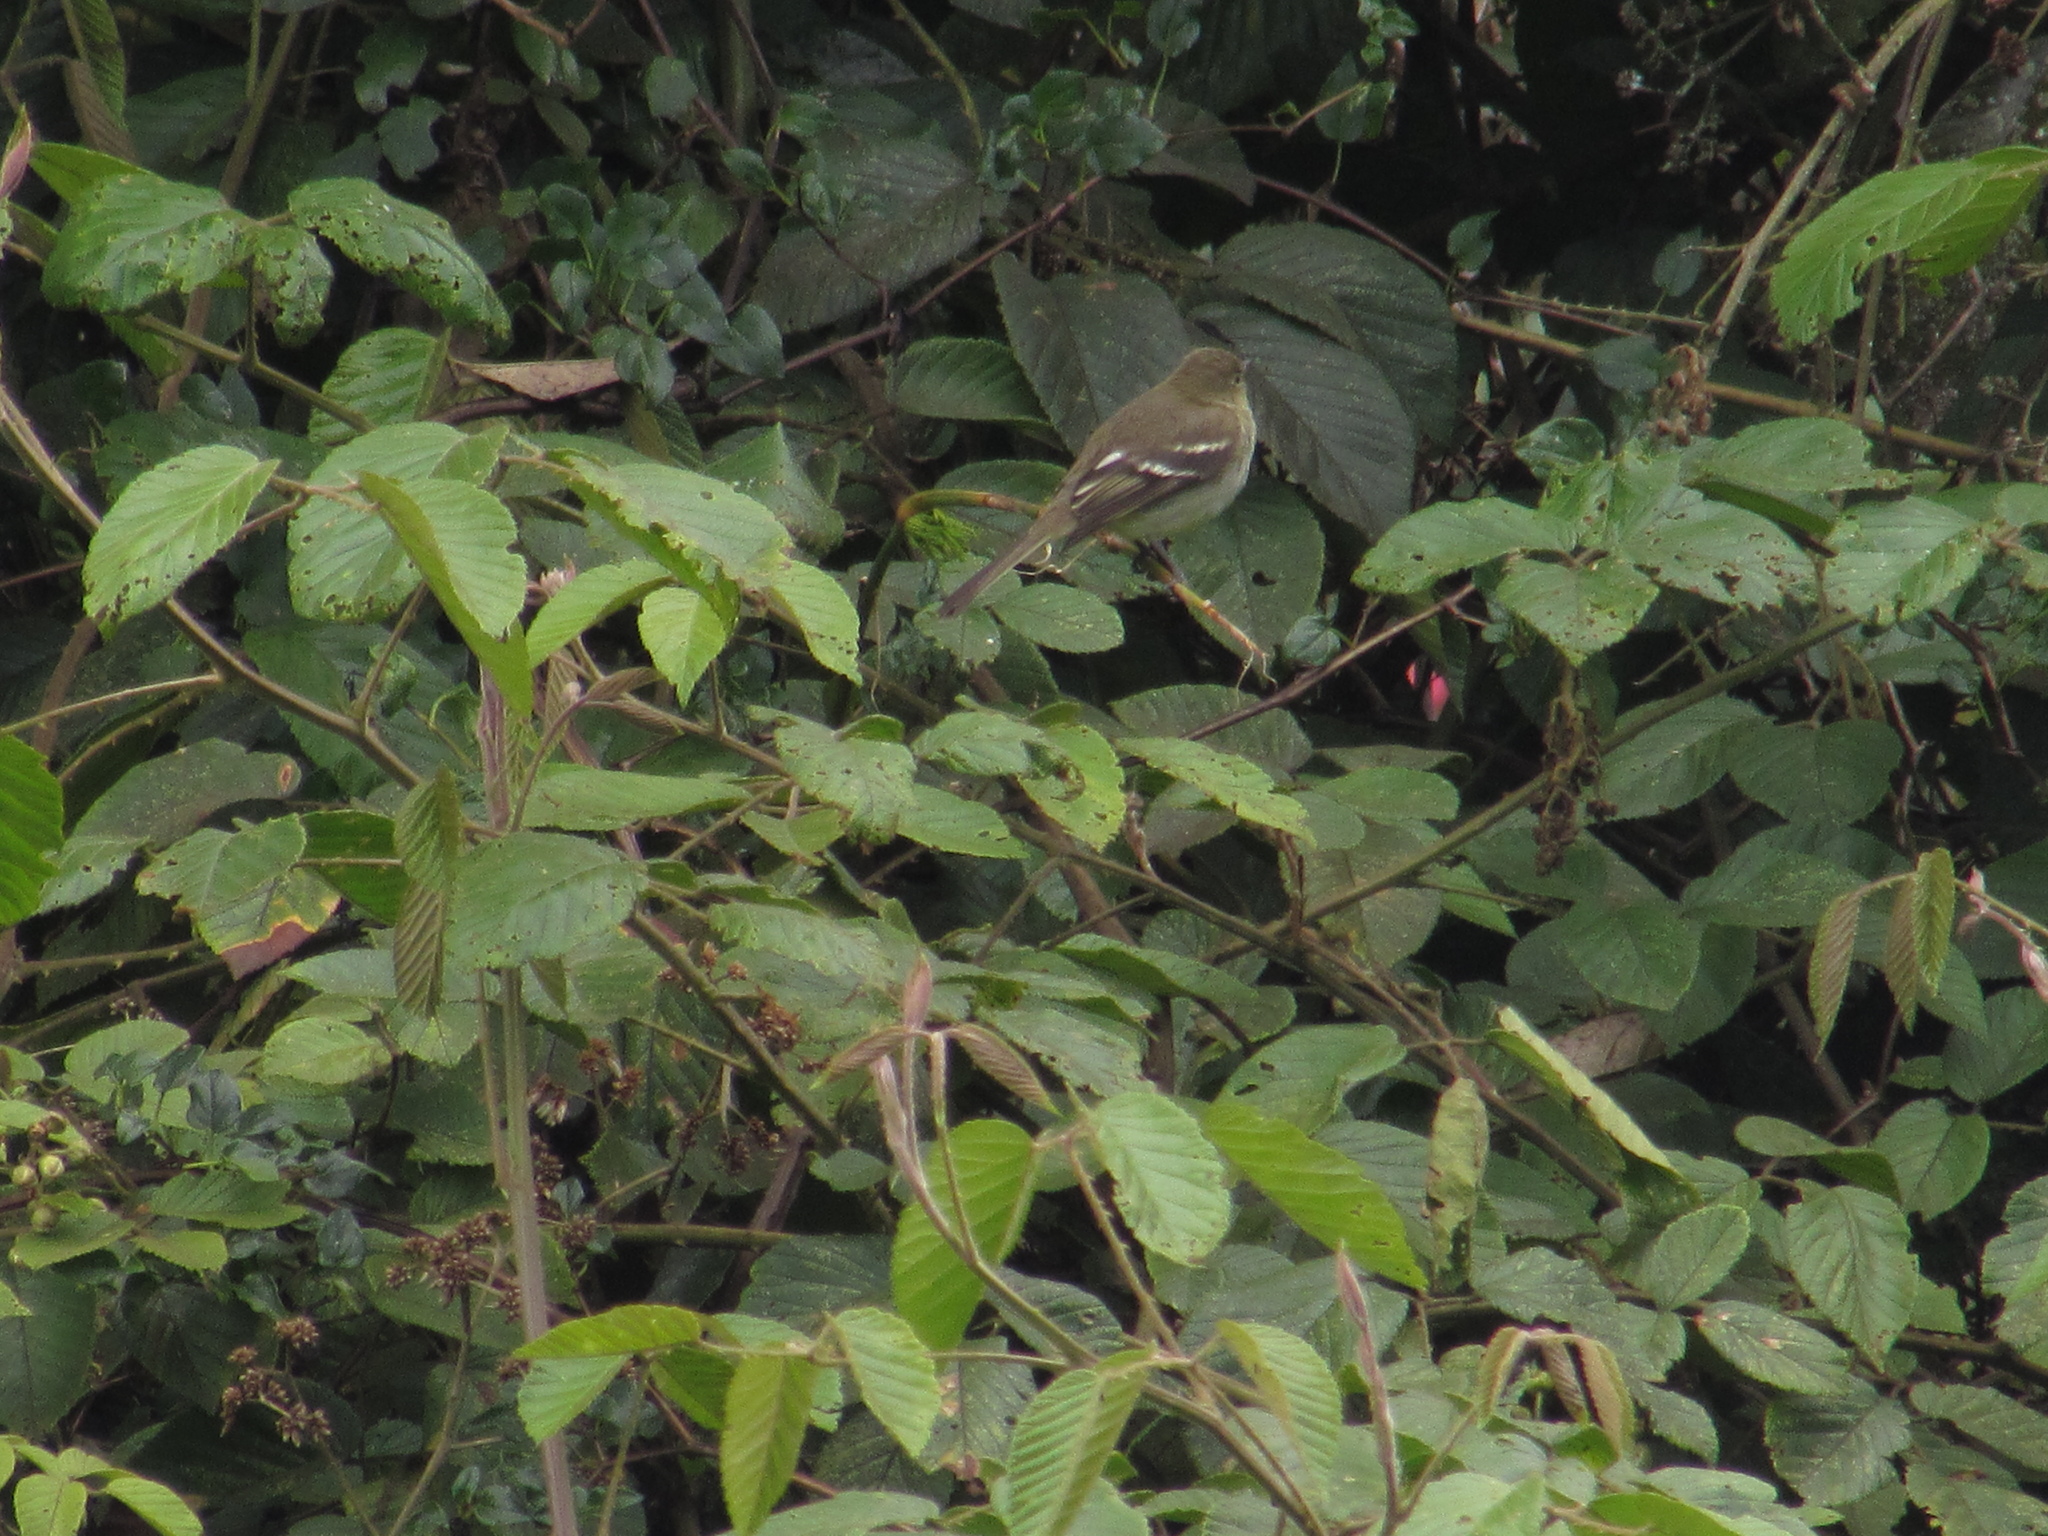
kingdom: Animalia
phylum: Chordata
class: Aves
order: Passeriformes
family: Tyrannidae
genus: Elaenia
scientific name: Elaenia frantzii
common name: Mountain elaenia
